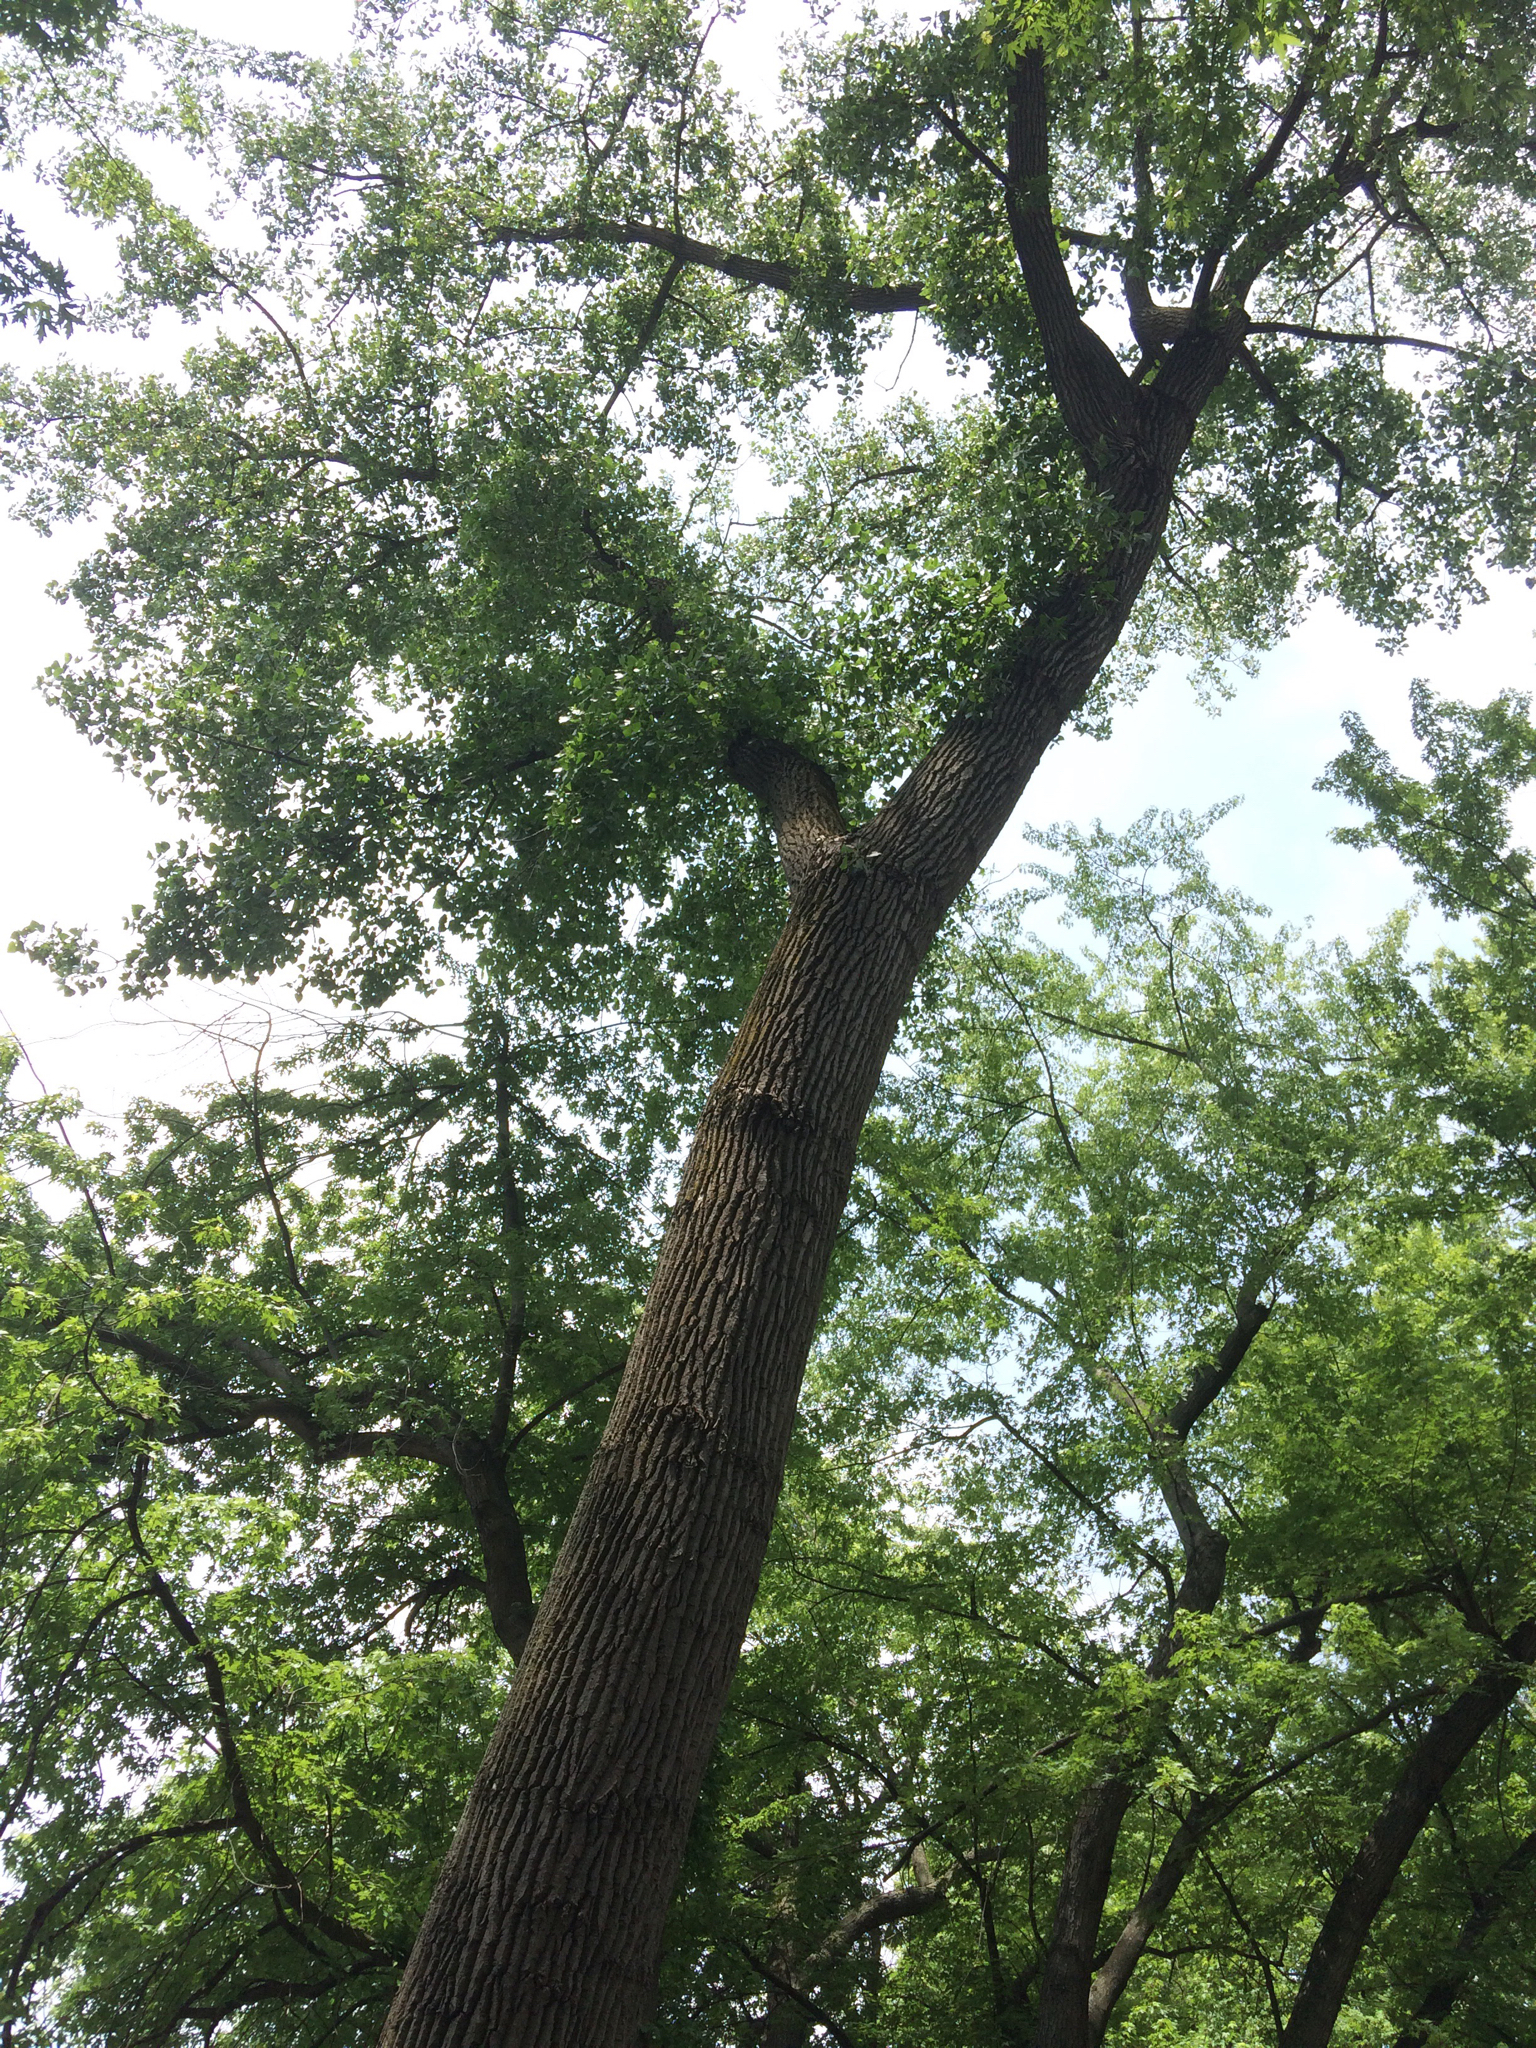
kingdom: Plantae
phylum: Tracheophyta
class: Magnoliopsida
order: Malpighiales
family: Salicaceae
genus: Populus
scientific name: Populus deltoides
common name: Eastern cottonwood
